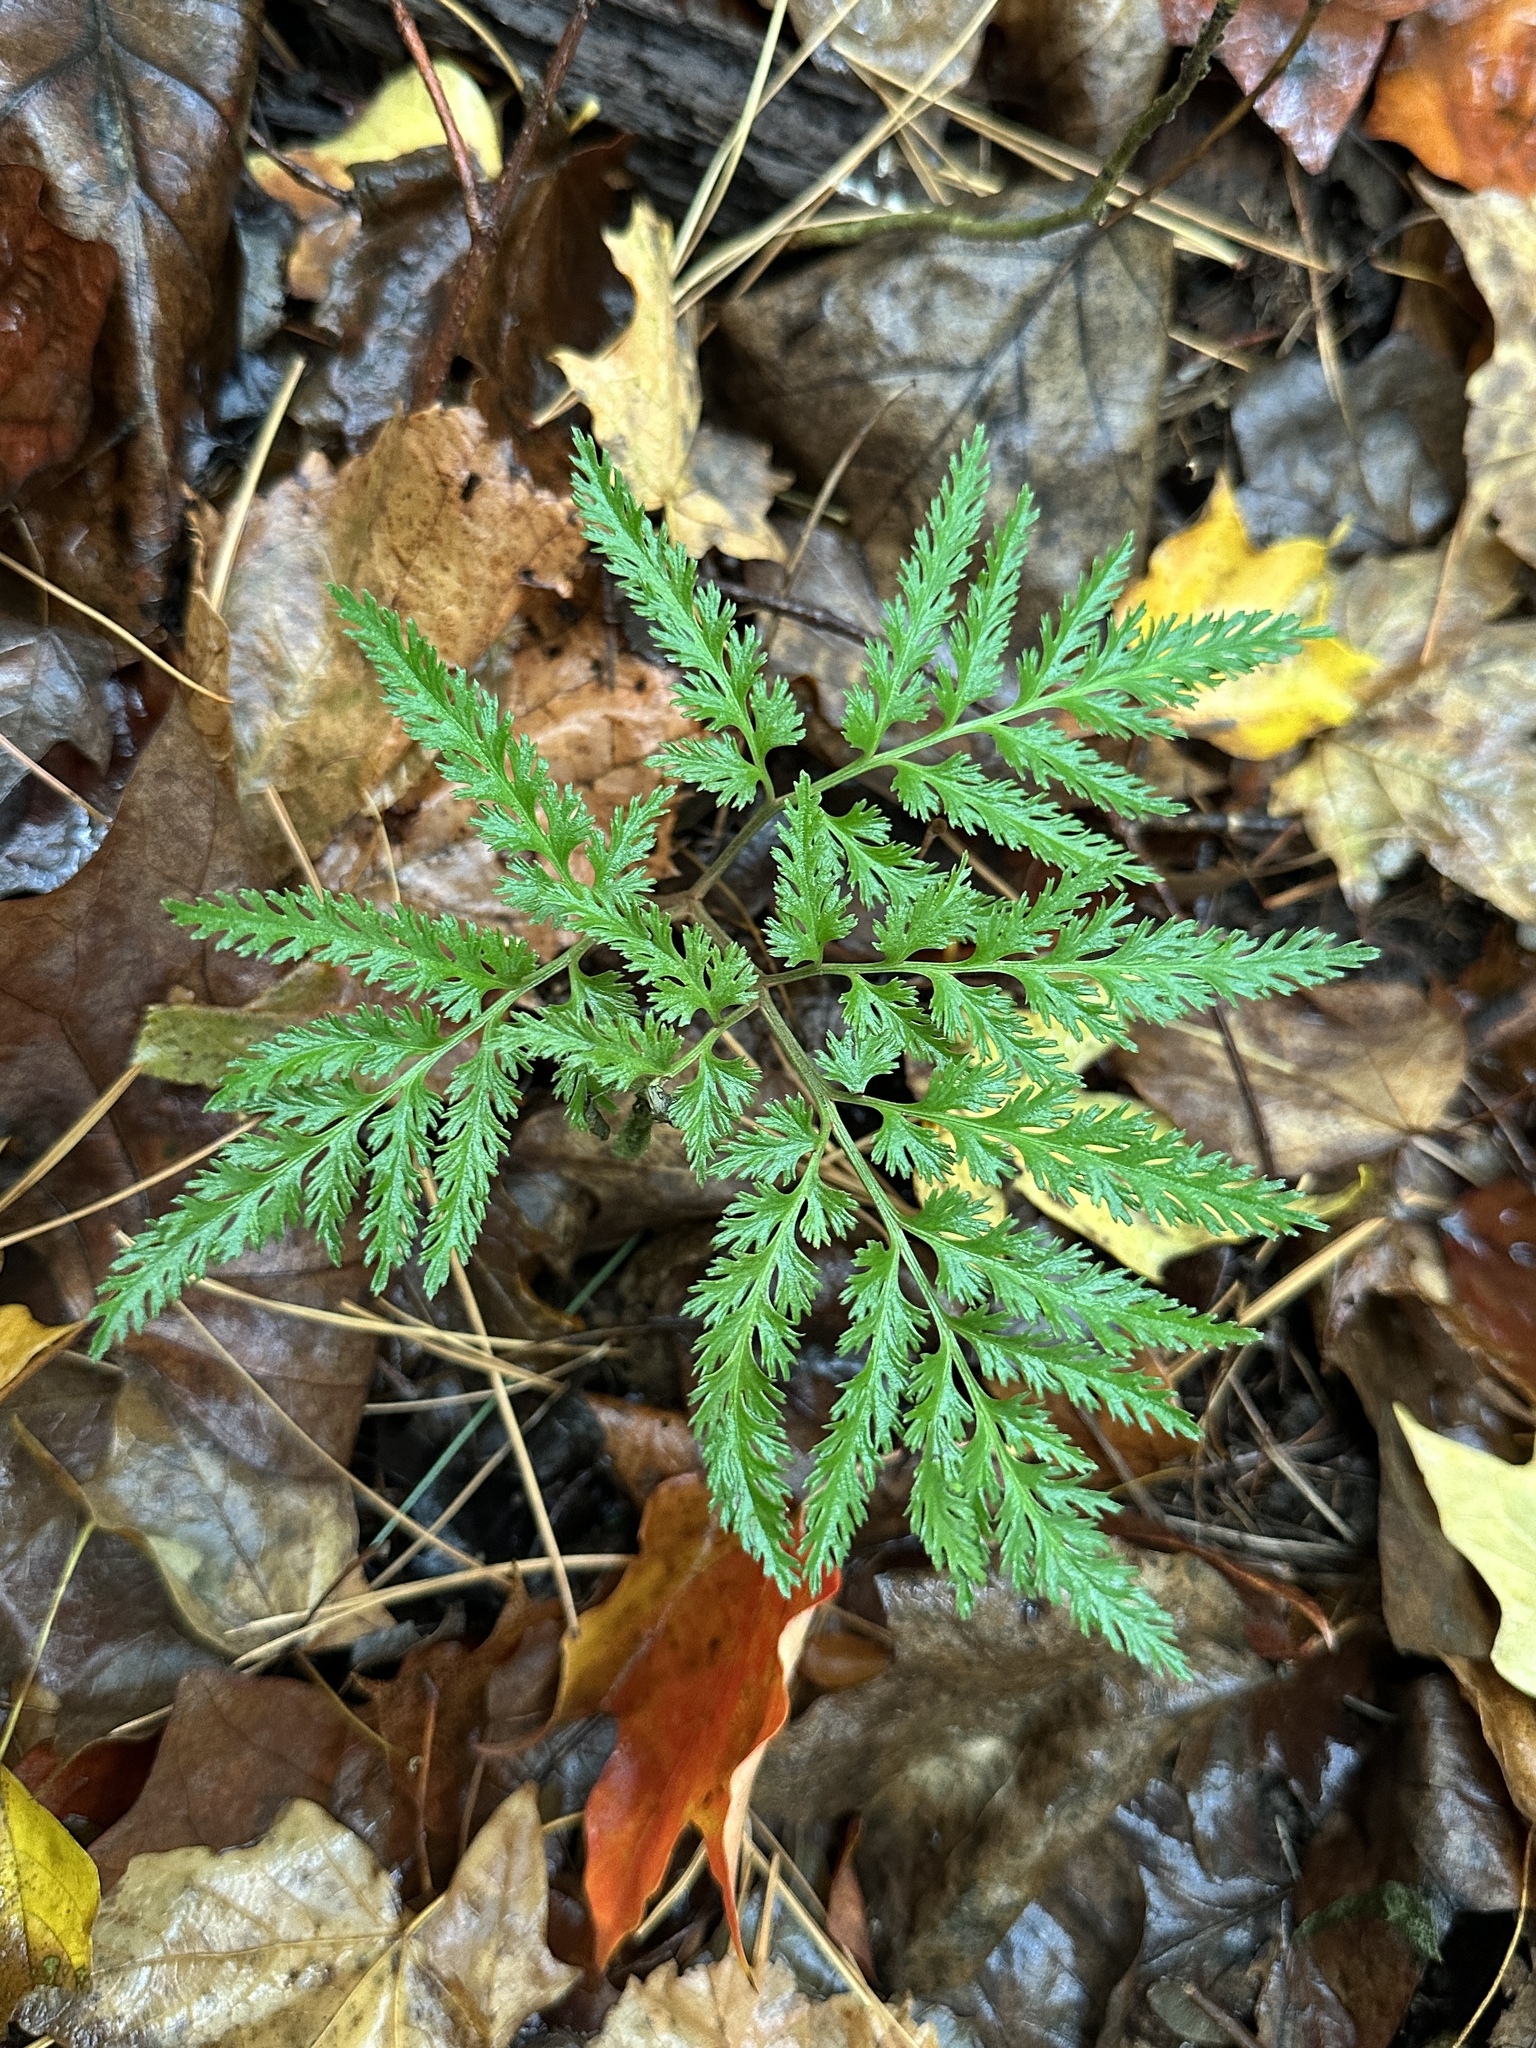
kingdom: Plantae
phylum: Tracheophyta
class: Polypodiopsida
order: Ophioglossales
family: Ophioglossaceae
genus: Sceptridium
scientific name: Sceptridium dissectum
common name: Cut-leaved grapefern
